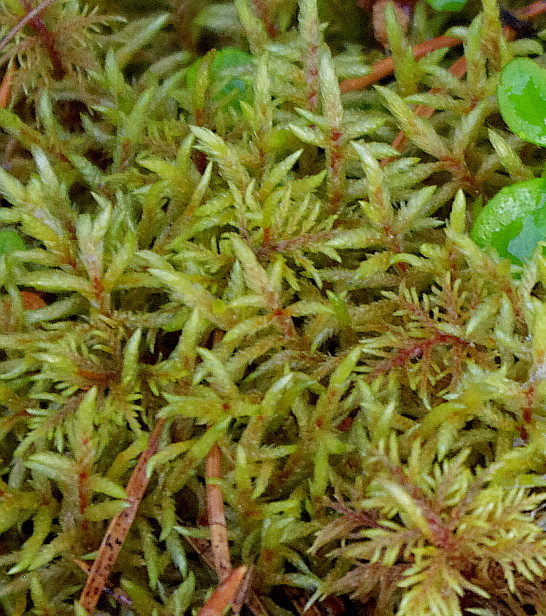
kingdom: Plantae
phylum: Bryophyta
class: Bryopsida
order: Hypnales
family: Hylocomiaceae
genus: Pleurozium
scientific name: Pleurozium schreberi
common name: Red-stemmed feather moss
